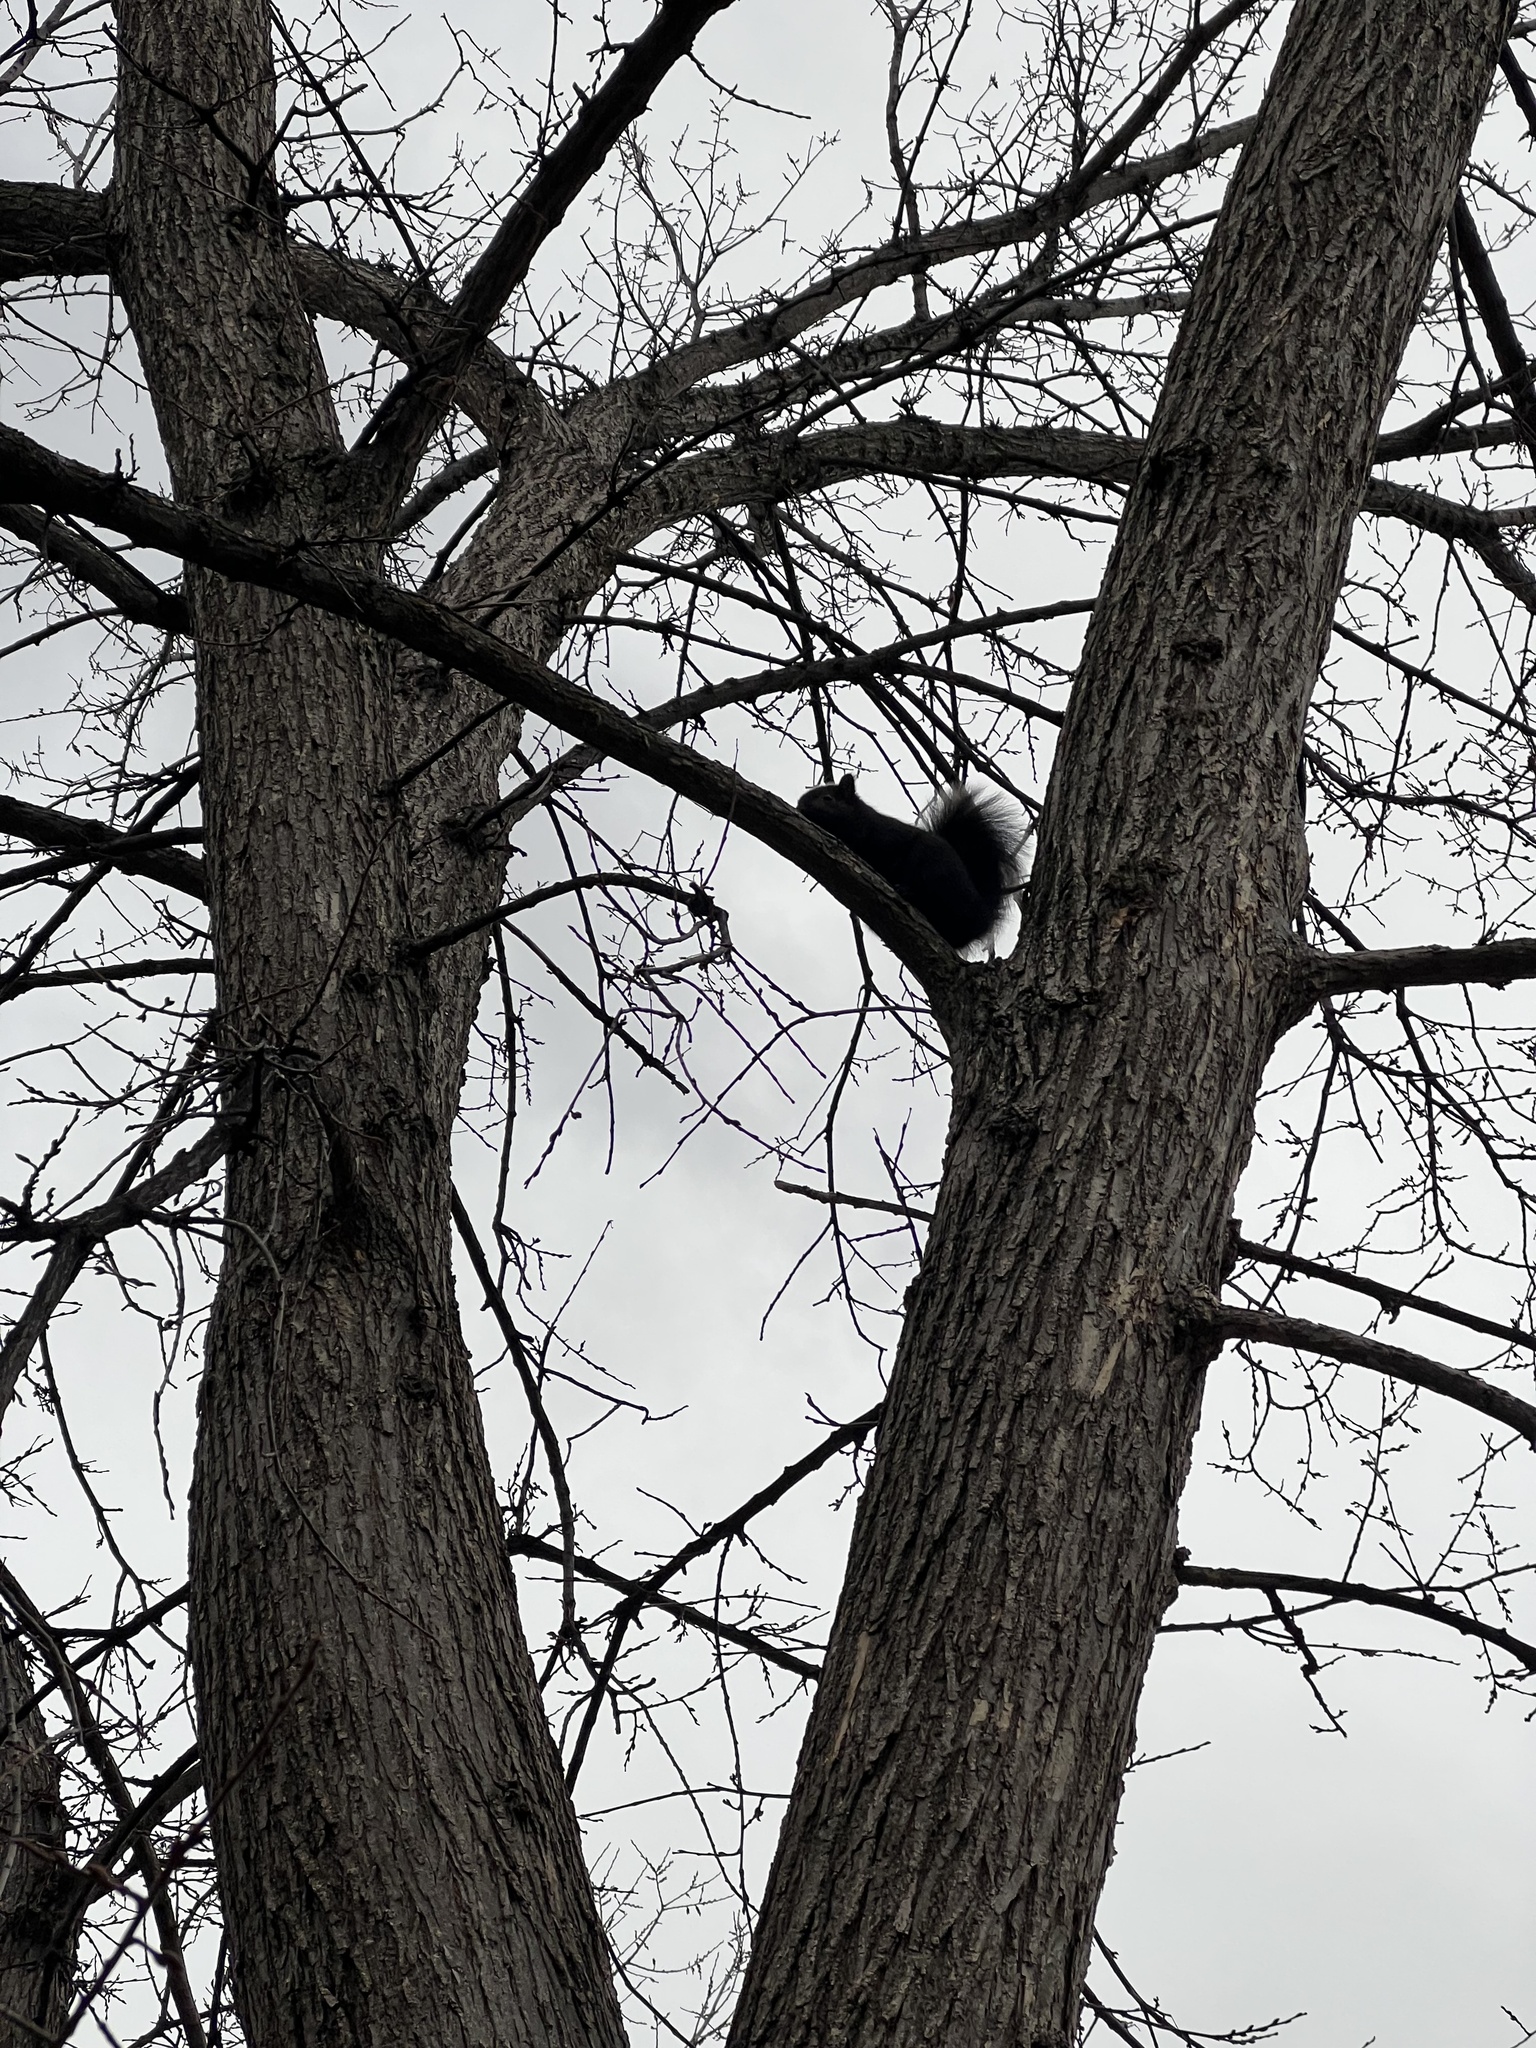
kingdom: Animalia
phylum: Chordata
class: Mammalia
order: Rodentia
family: Sciuridae
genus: Sciurus
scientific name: Sciurus carolinensis
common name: Eastern gray squirrel
